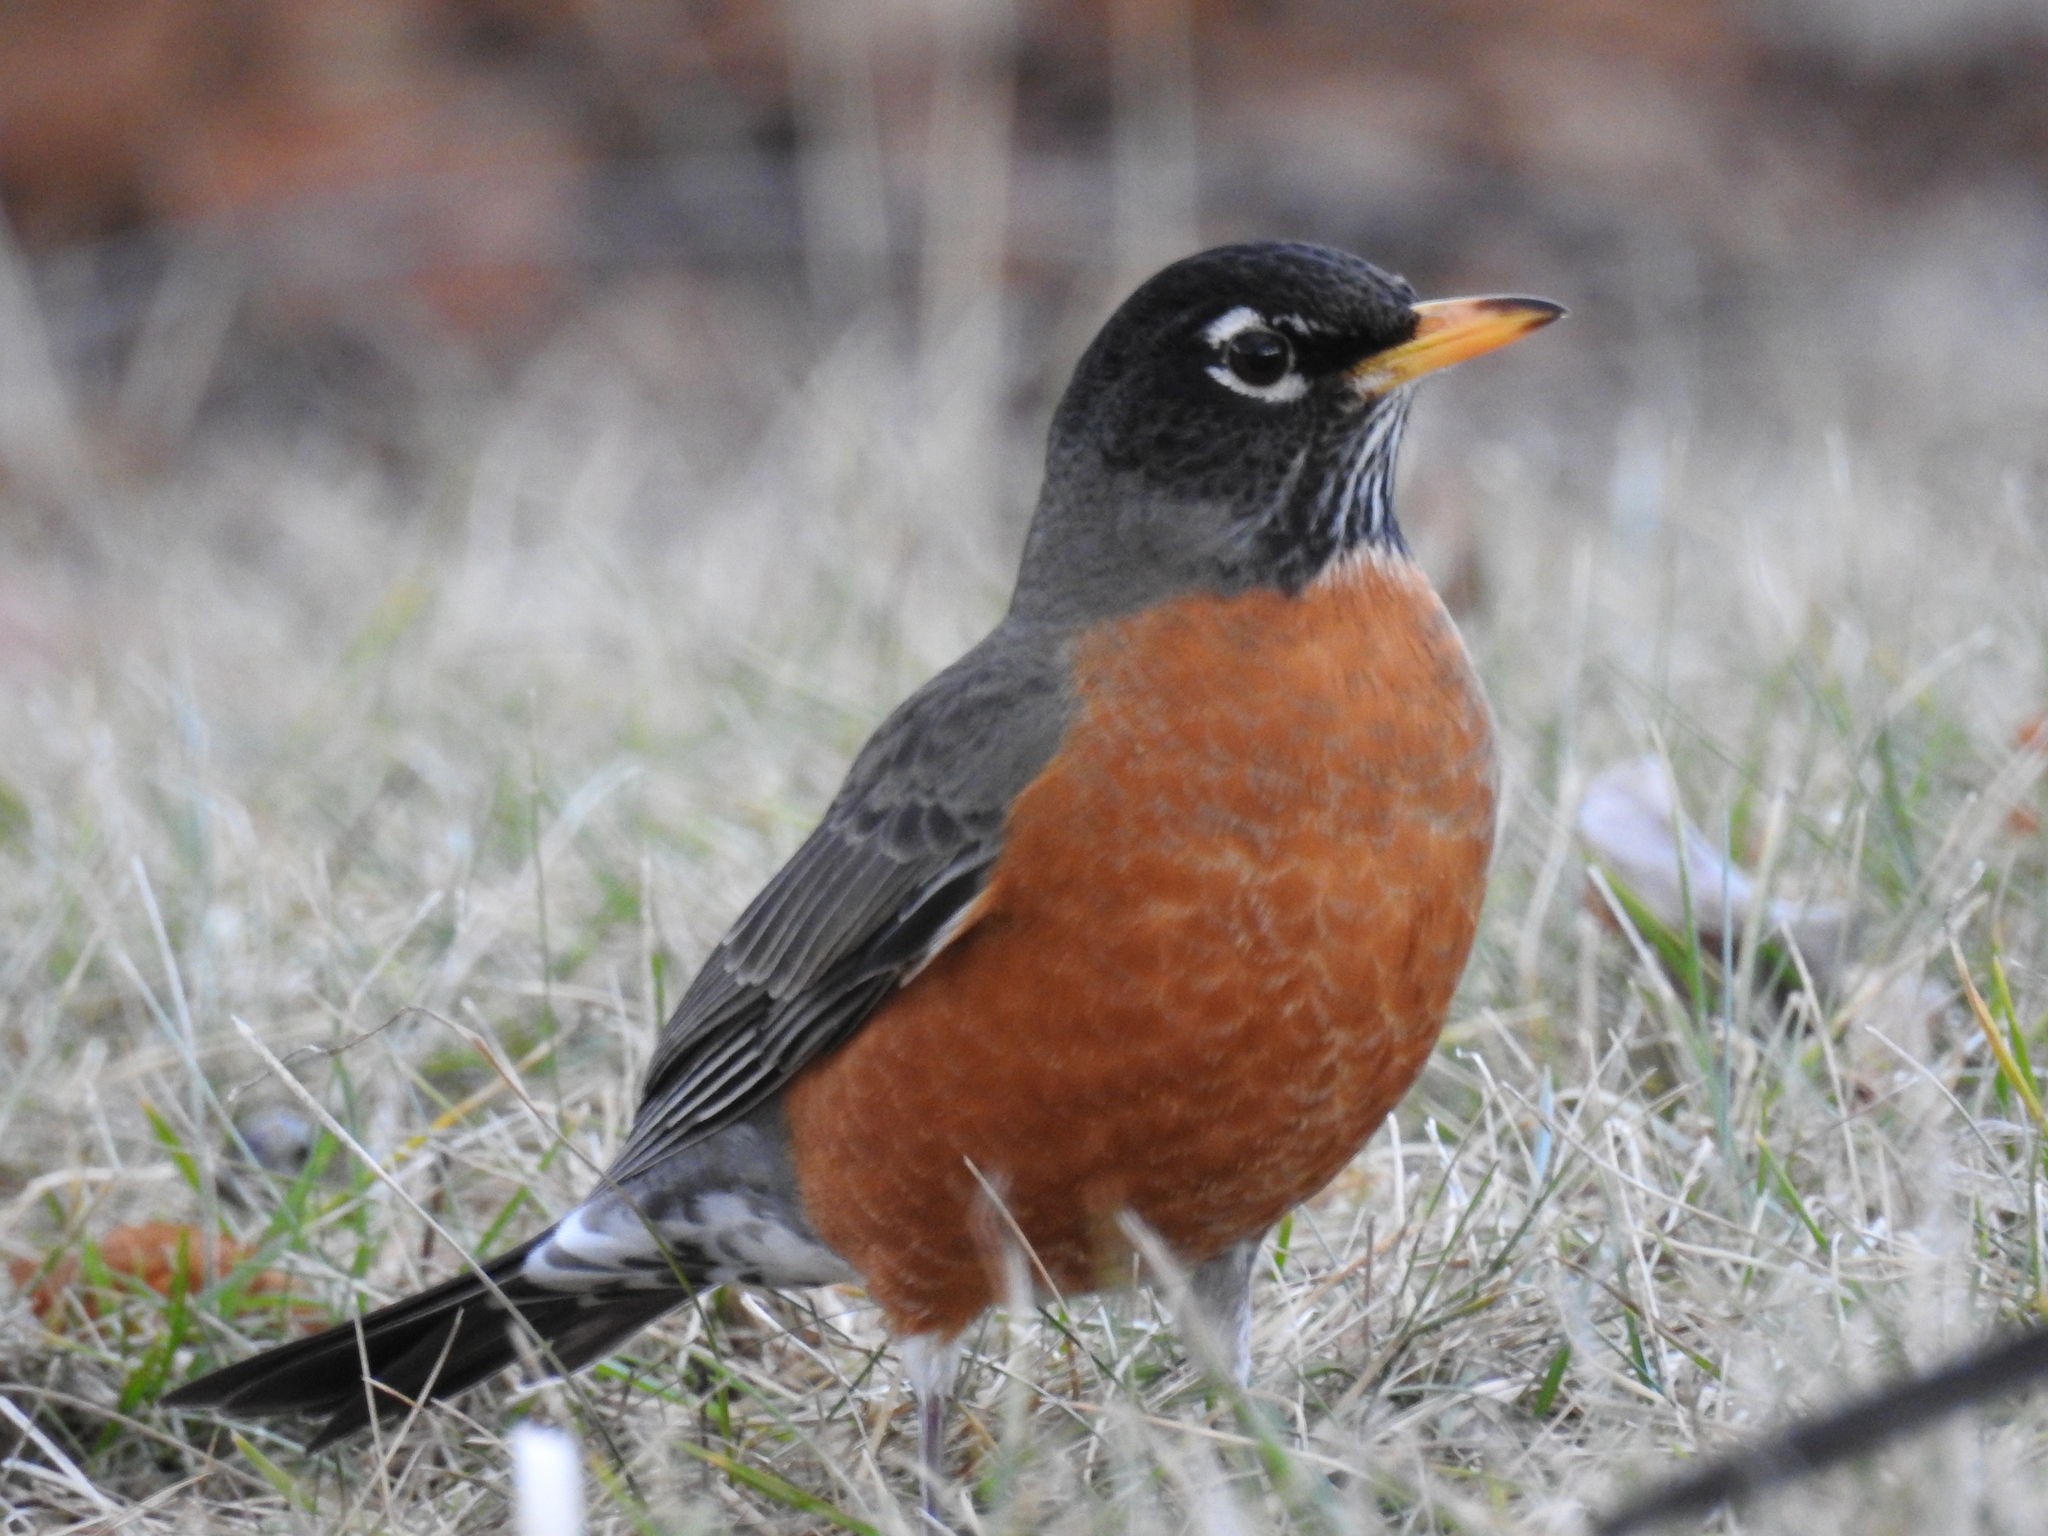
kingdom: Animalia
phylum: Chordata
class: Aves
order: Passeriformes
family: Turdidae
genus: Turdus
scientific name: Turdus migratorius
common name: American robin
